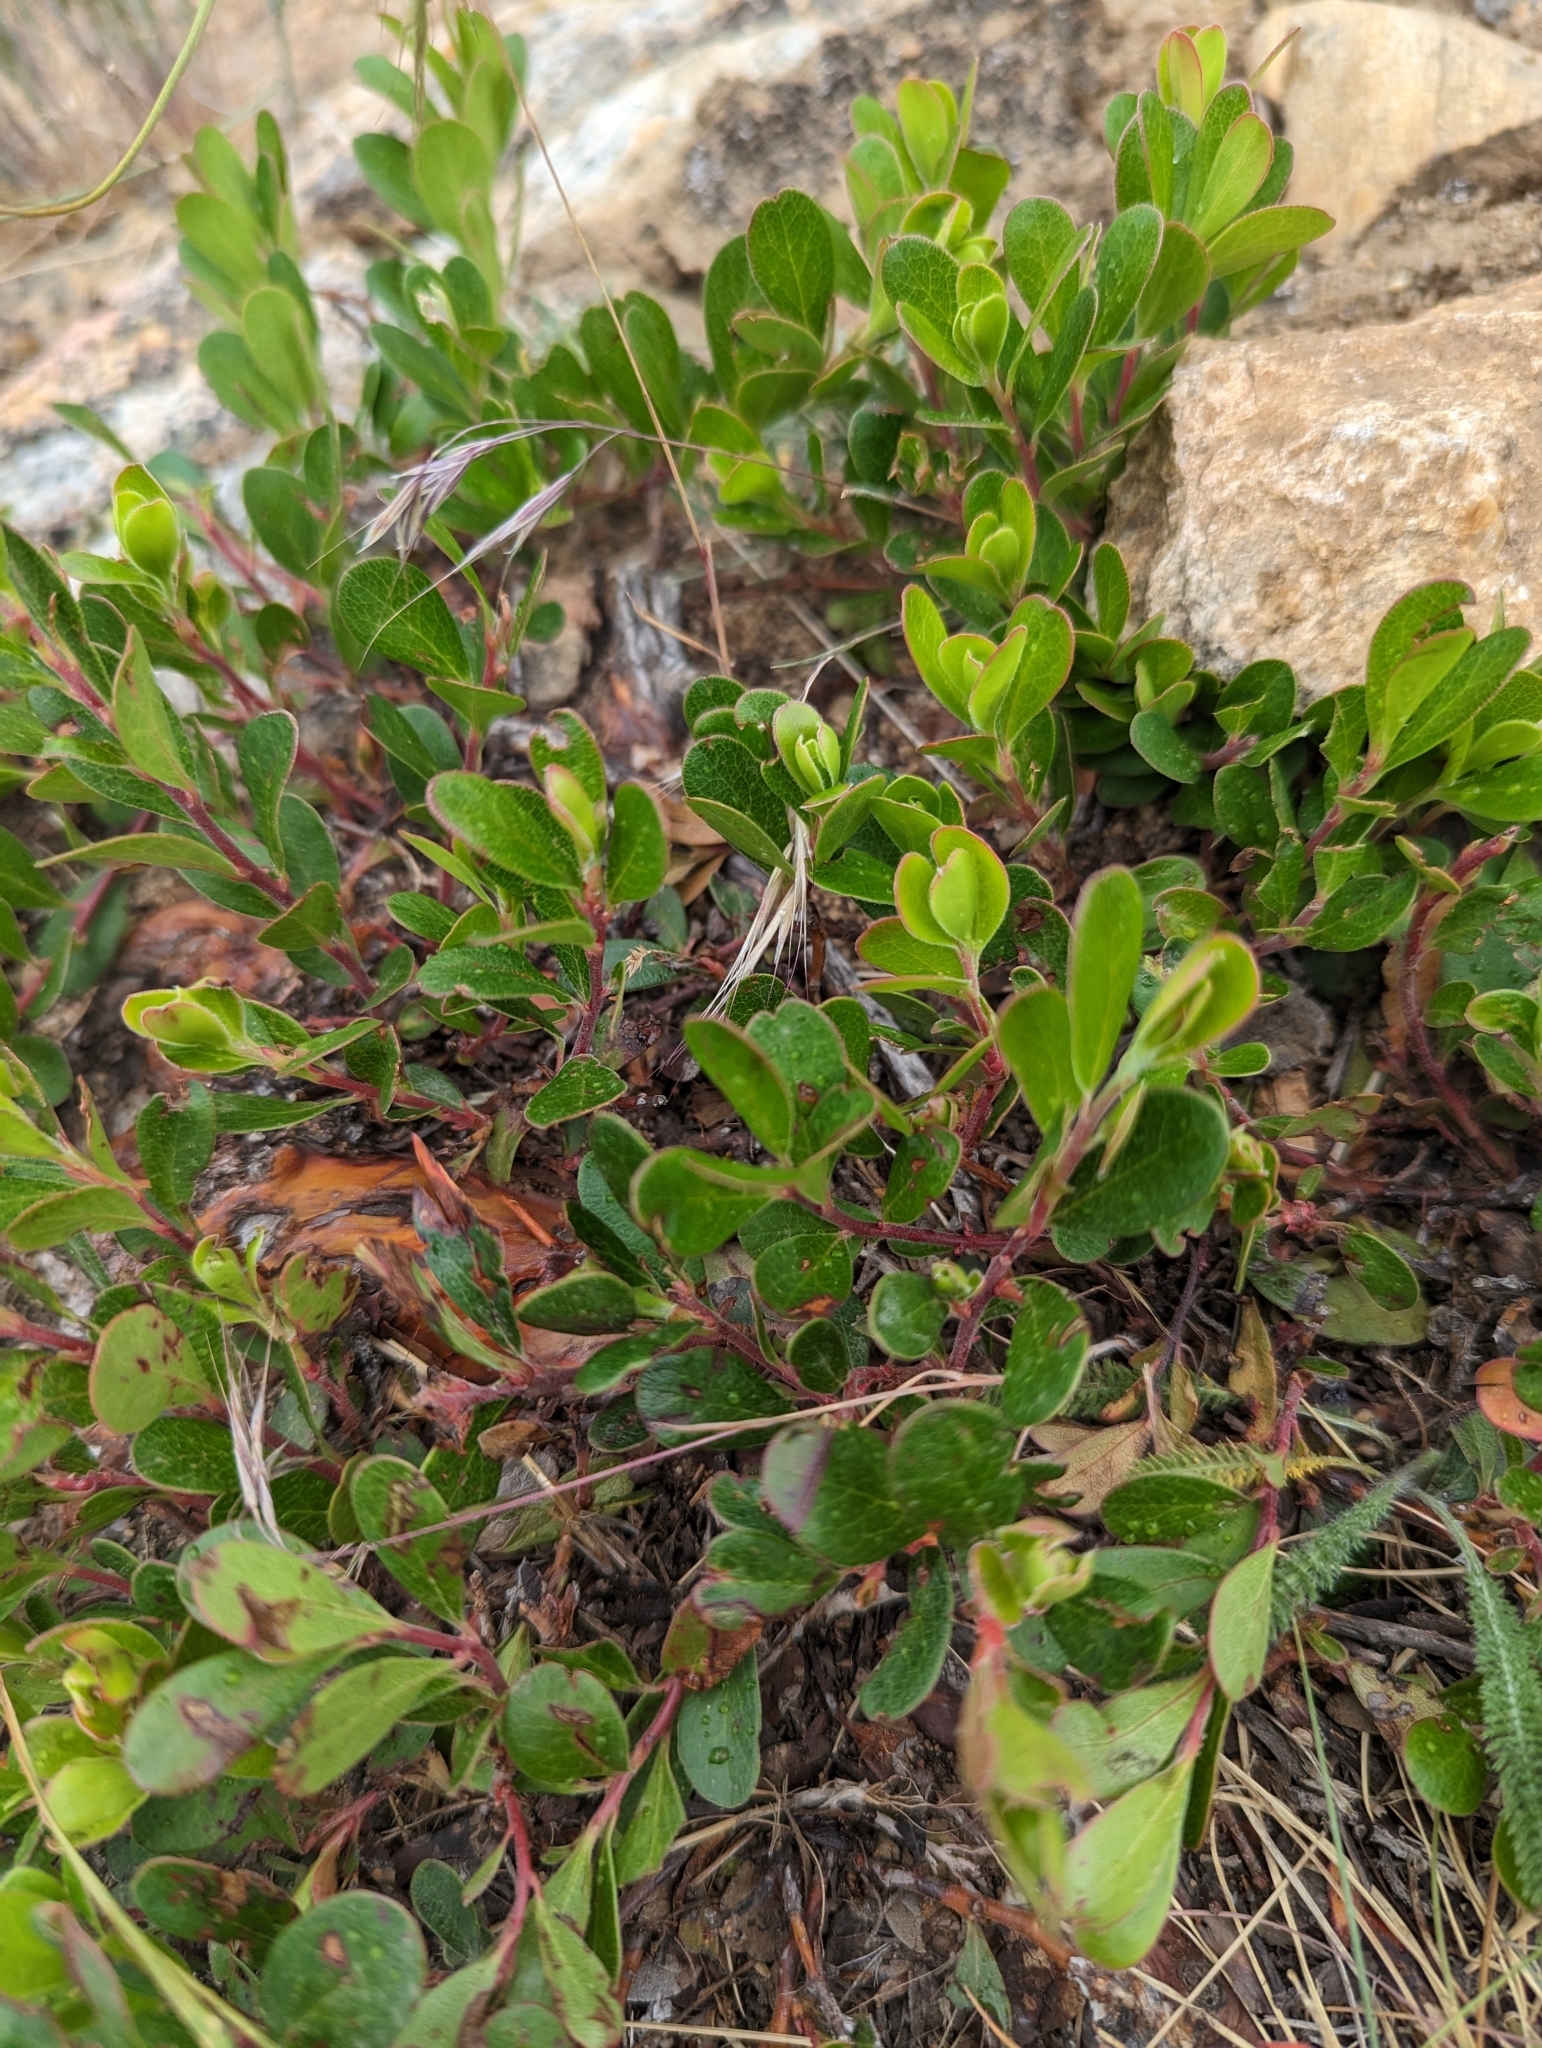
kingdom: Plantae
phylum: Tracheophyta
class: Magnoliopsida
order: Ericales
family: Ericaceae
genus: Arctostaphylos
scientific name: Arctostaphylos uva-ursi
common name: Bearberry
